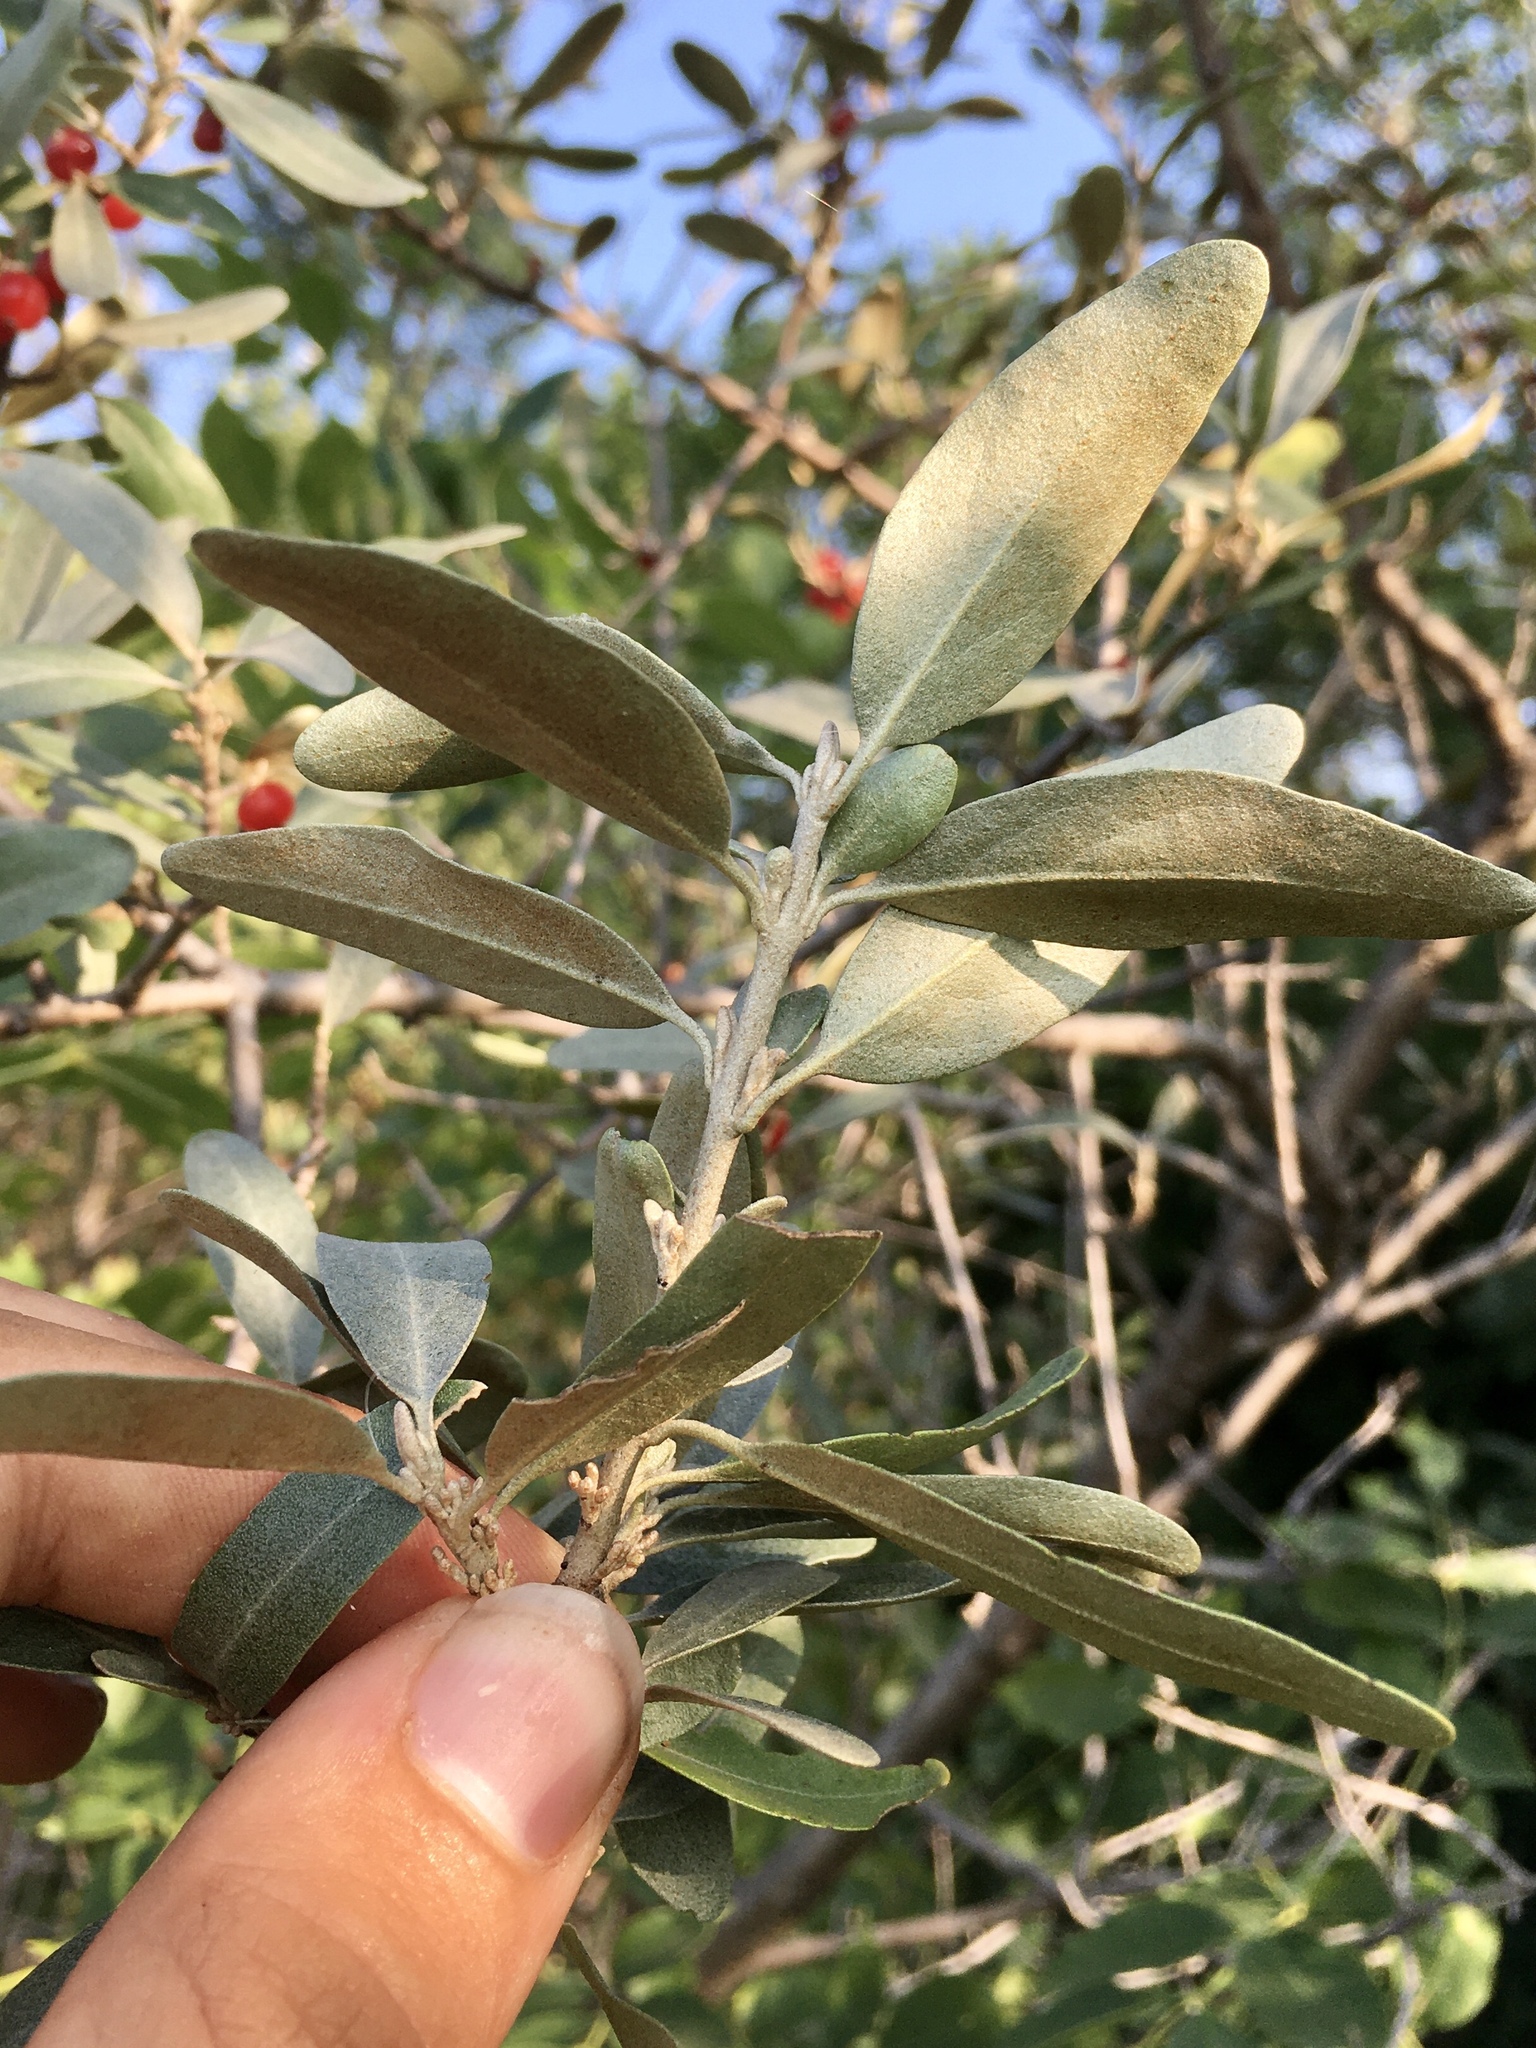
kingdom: Plantae
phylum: Tracheophyta
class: Magnoliopsida
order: Rosales
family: Elaeagnaceae
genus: Shepherdia
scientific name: Shepherdia argentea
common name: Silver buffaloberry
